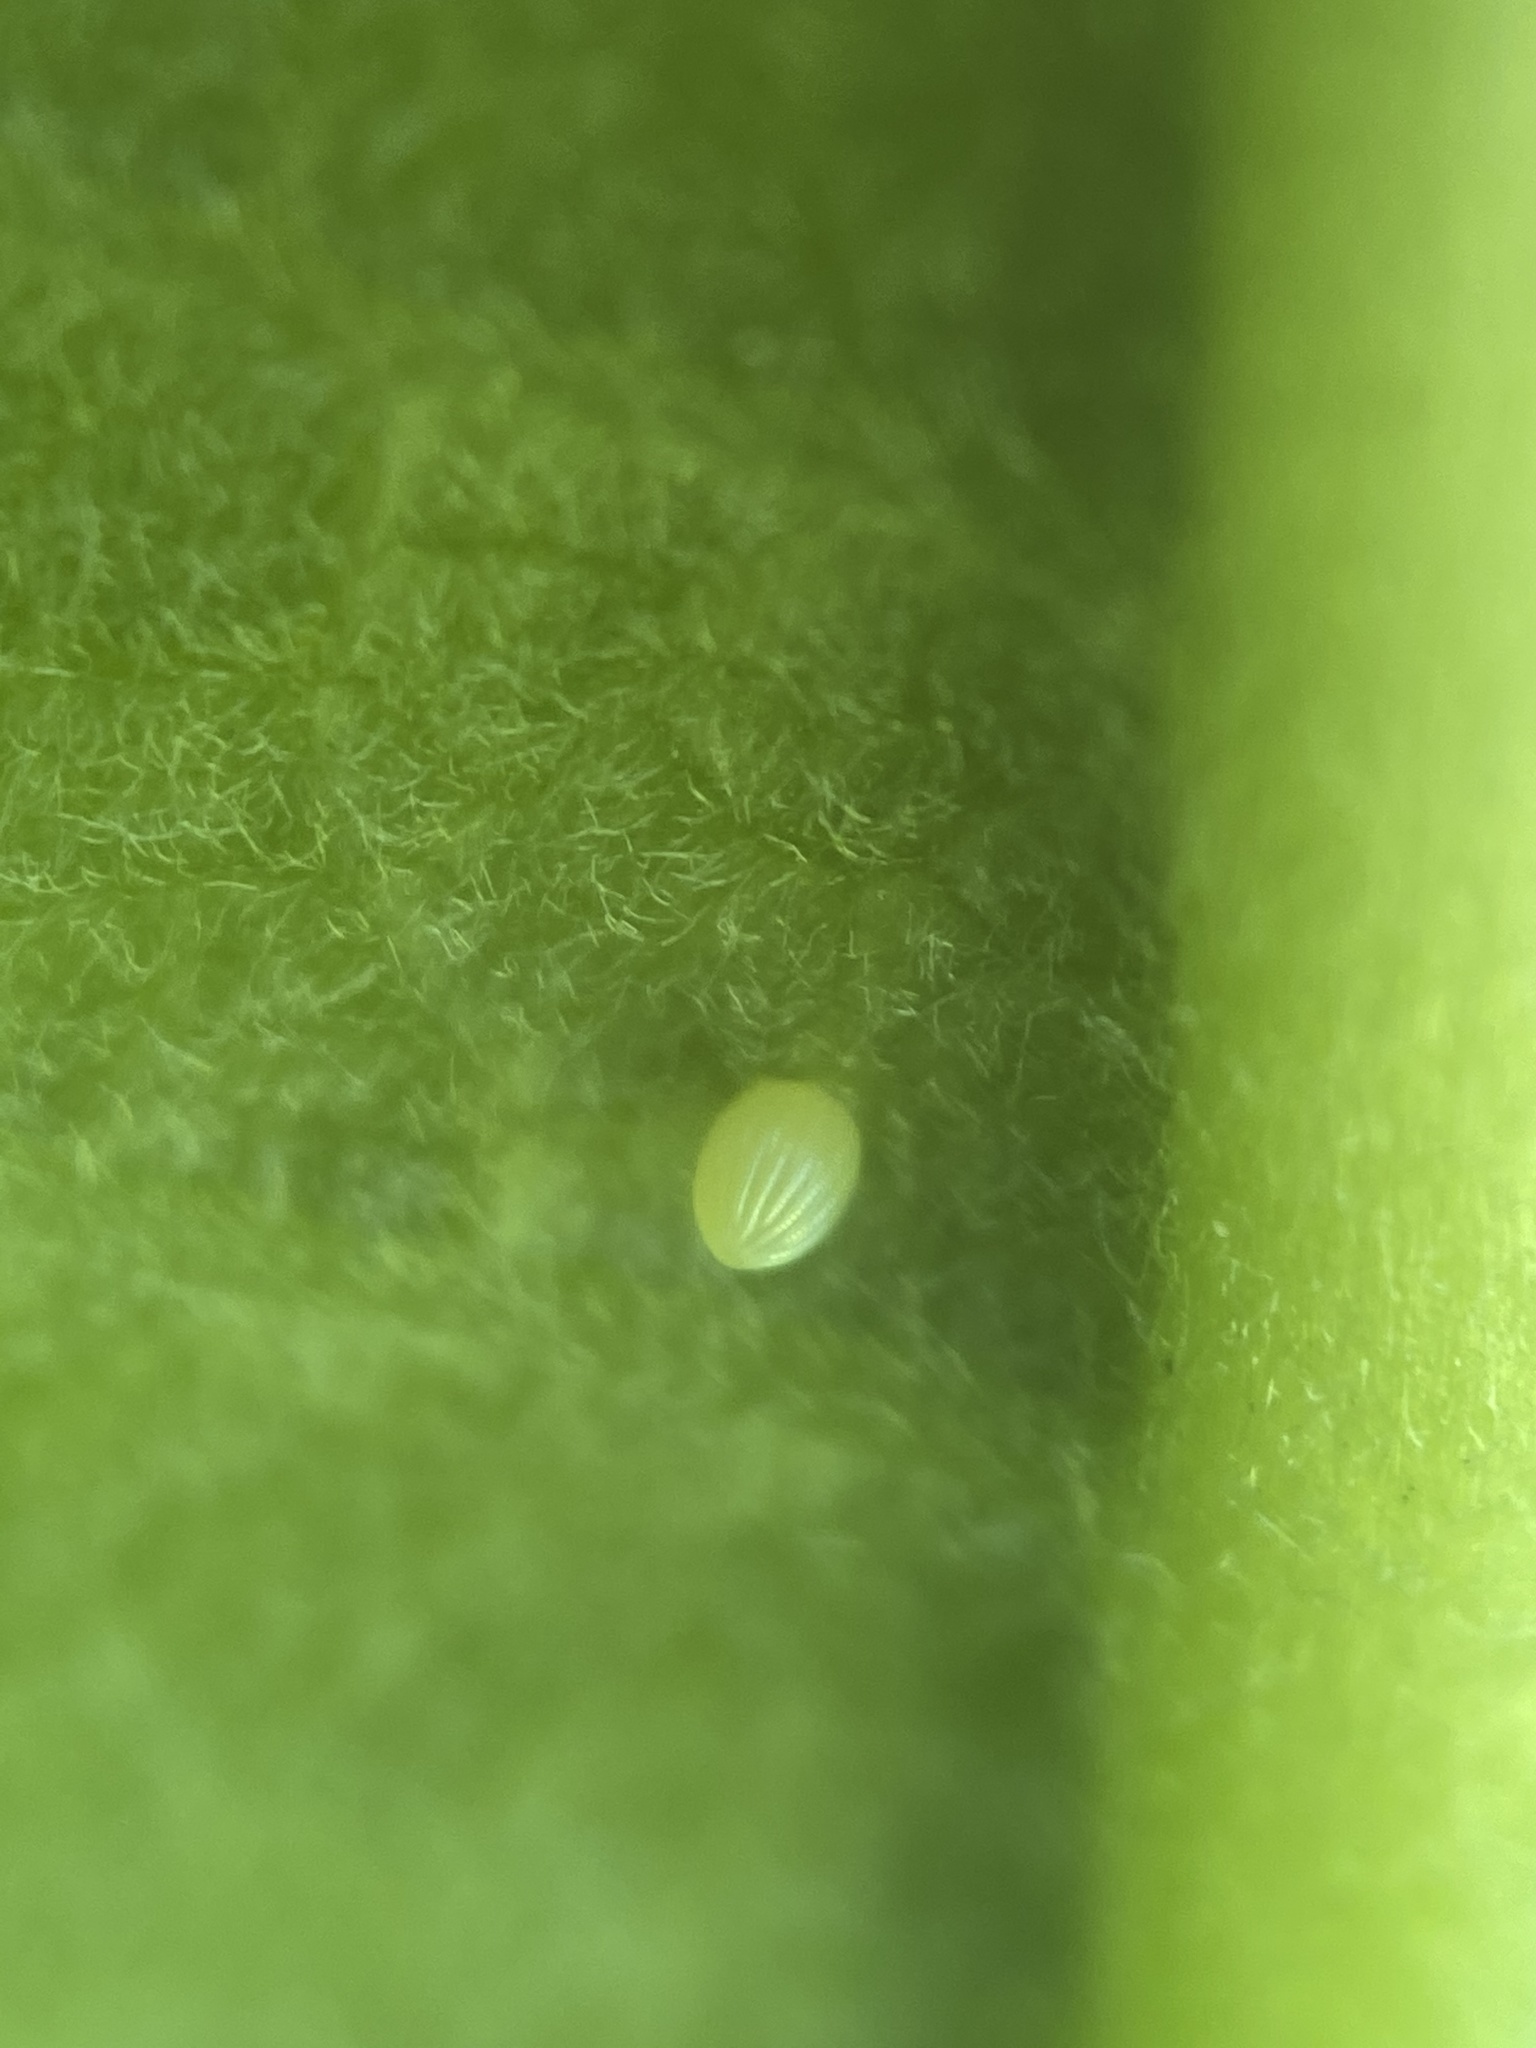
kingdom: Animalia
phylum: Arthropoda
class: Insecta
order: Lepidoptera
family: Nymphalidae
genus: Danaus
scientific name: Danaus plexippus
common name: Monarch
